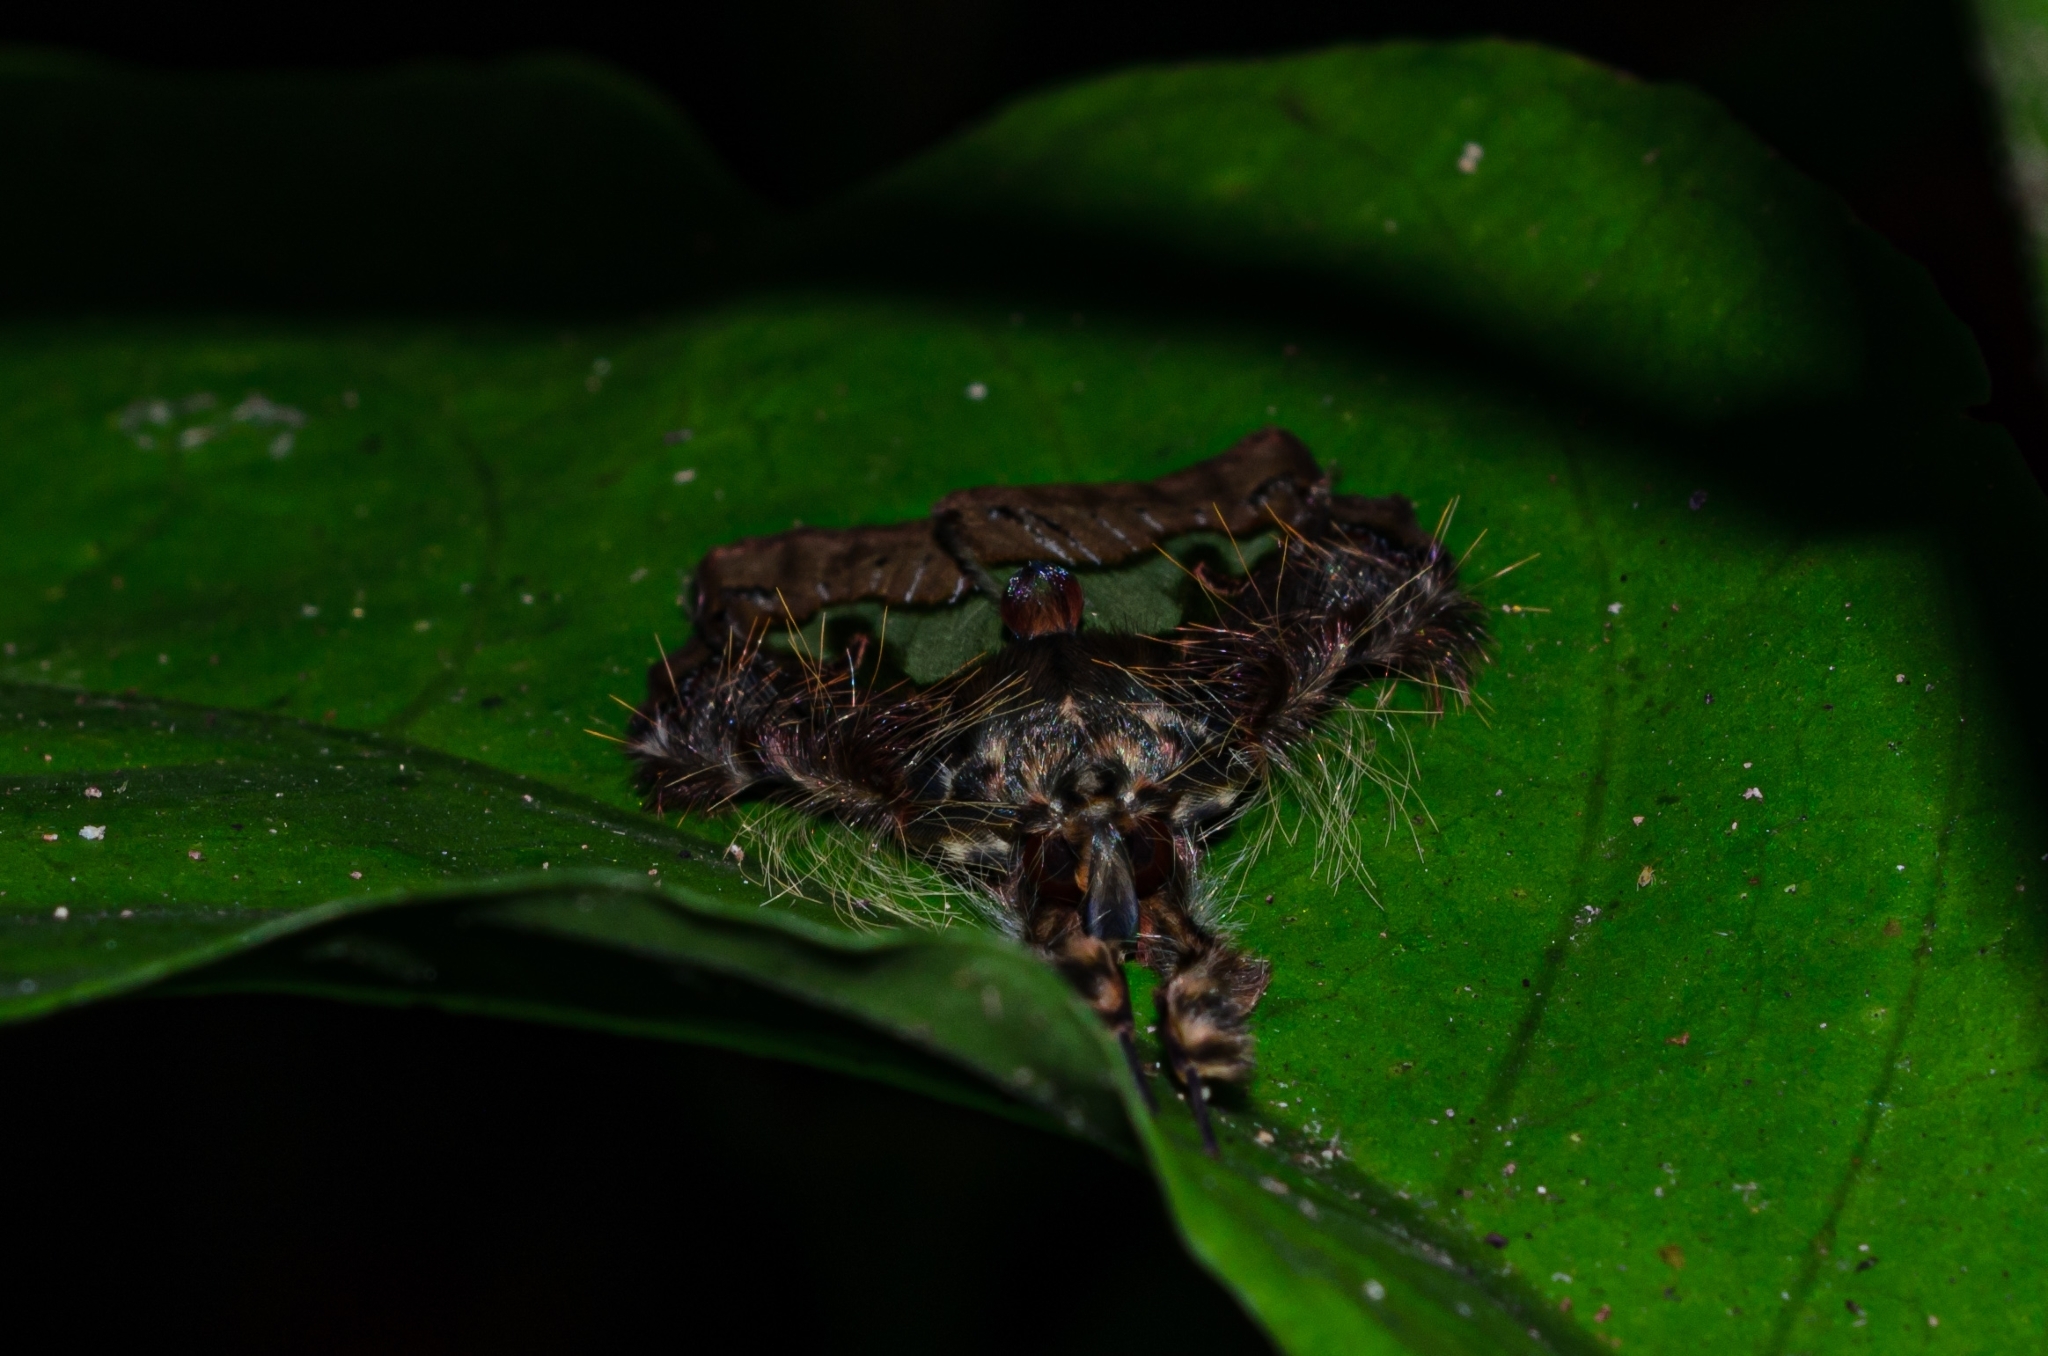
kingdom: Animalia
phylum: Arthropoda
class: Insecta
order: Lepidoptera
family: Erebidae
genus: Ceroctena
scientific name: Ceroctena amynta
